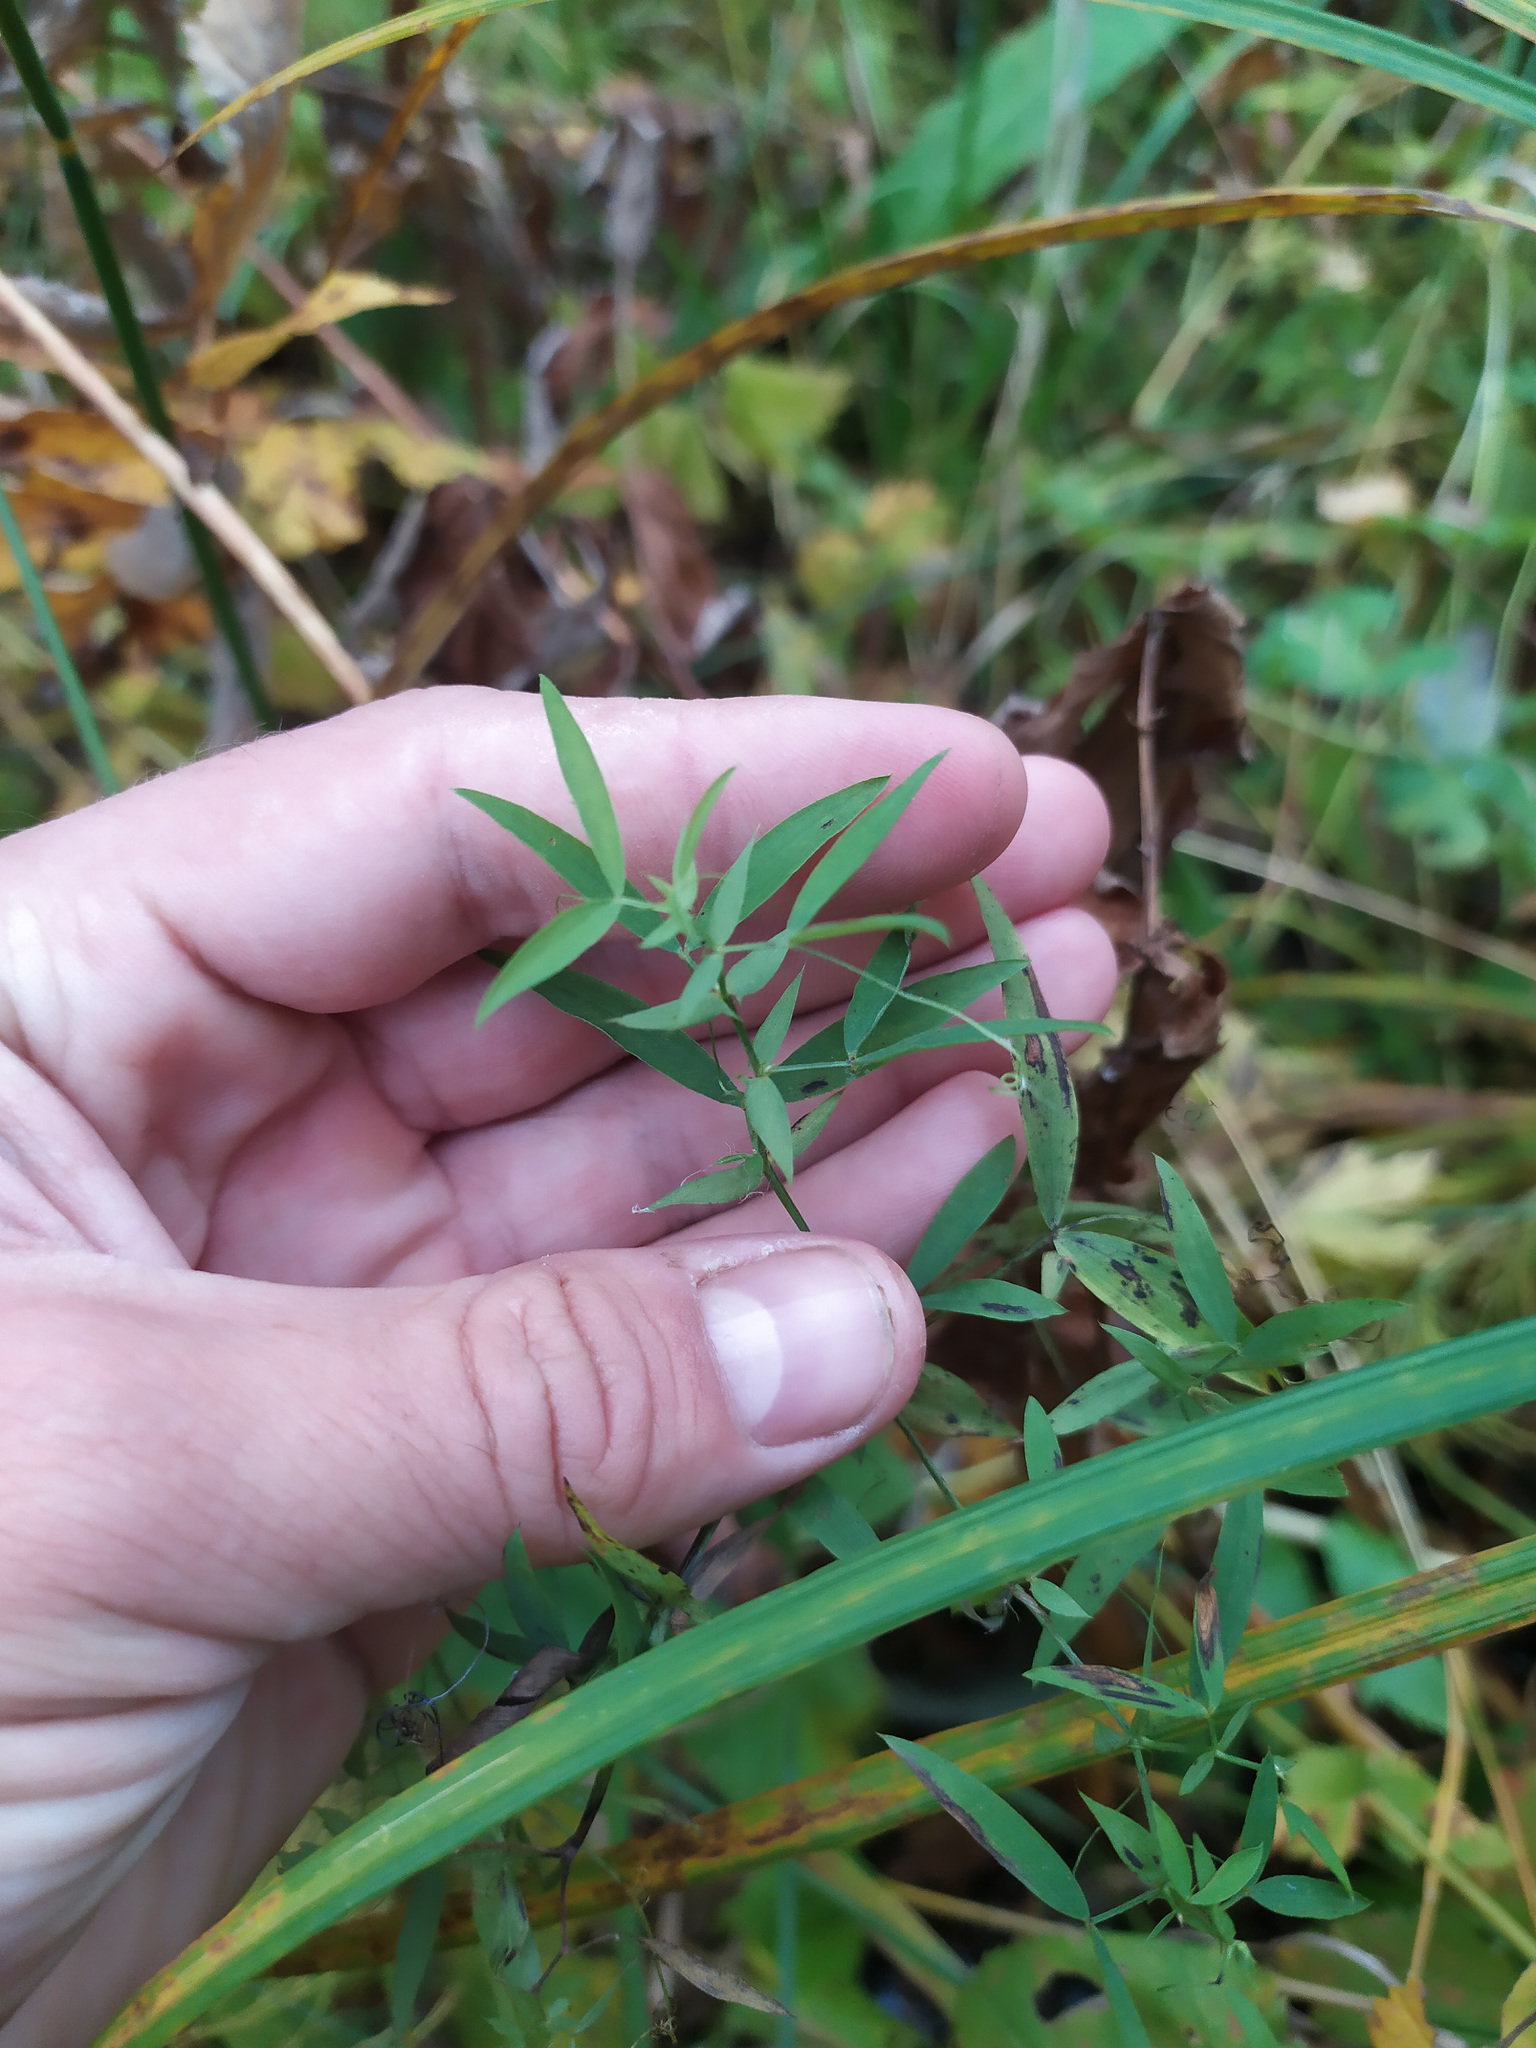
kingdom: Plantae
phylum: Tracheophyta
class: Magnoliopsida
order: Fabales
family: Fabaceae
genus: Lathyrus
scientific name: Lathyrus pratensis
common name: Meadow vetchling
